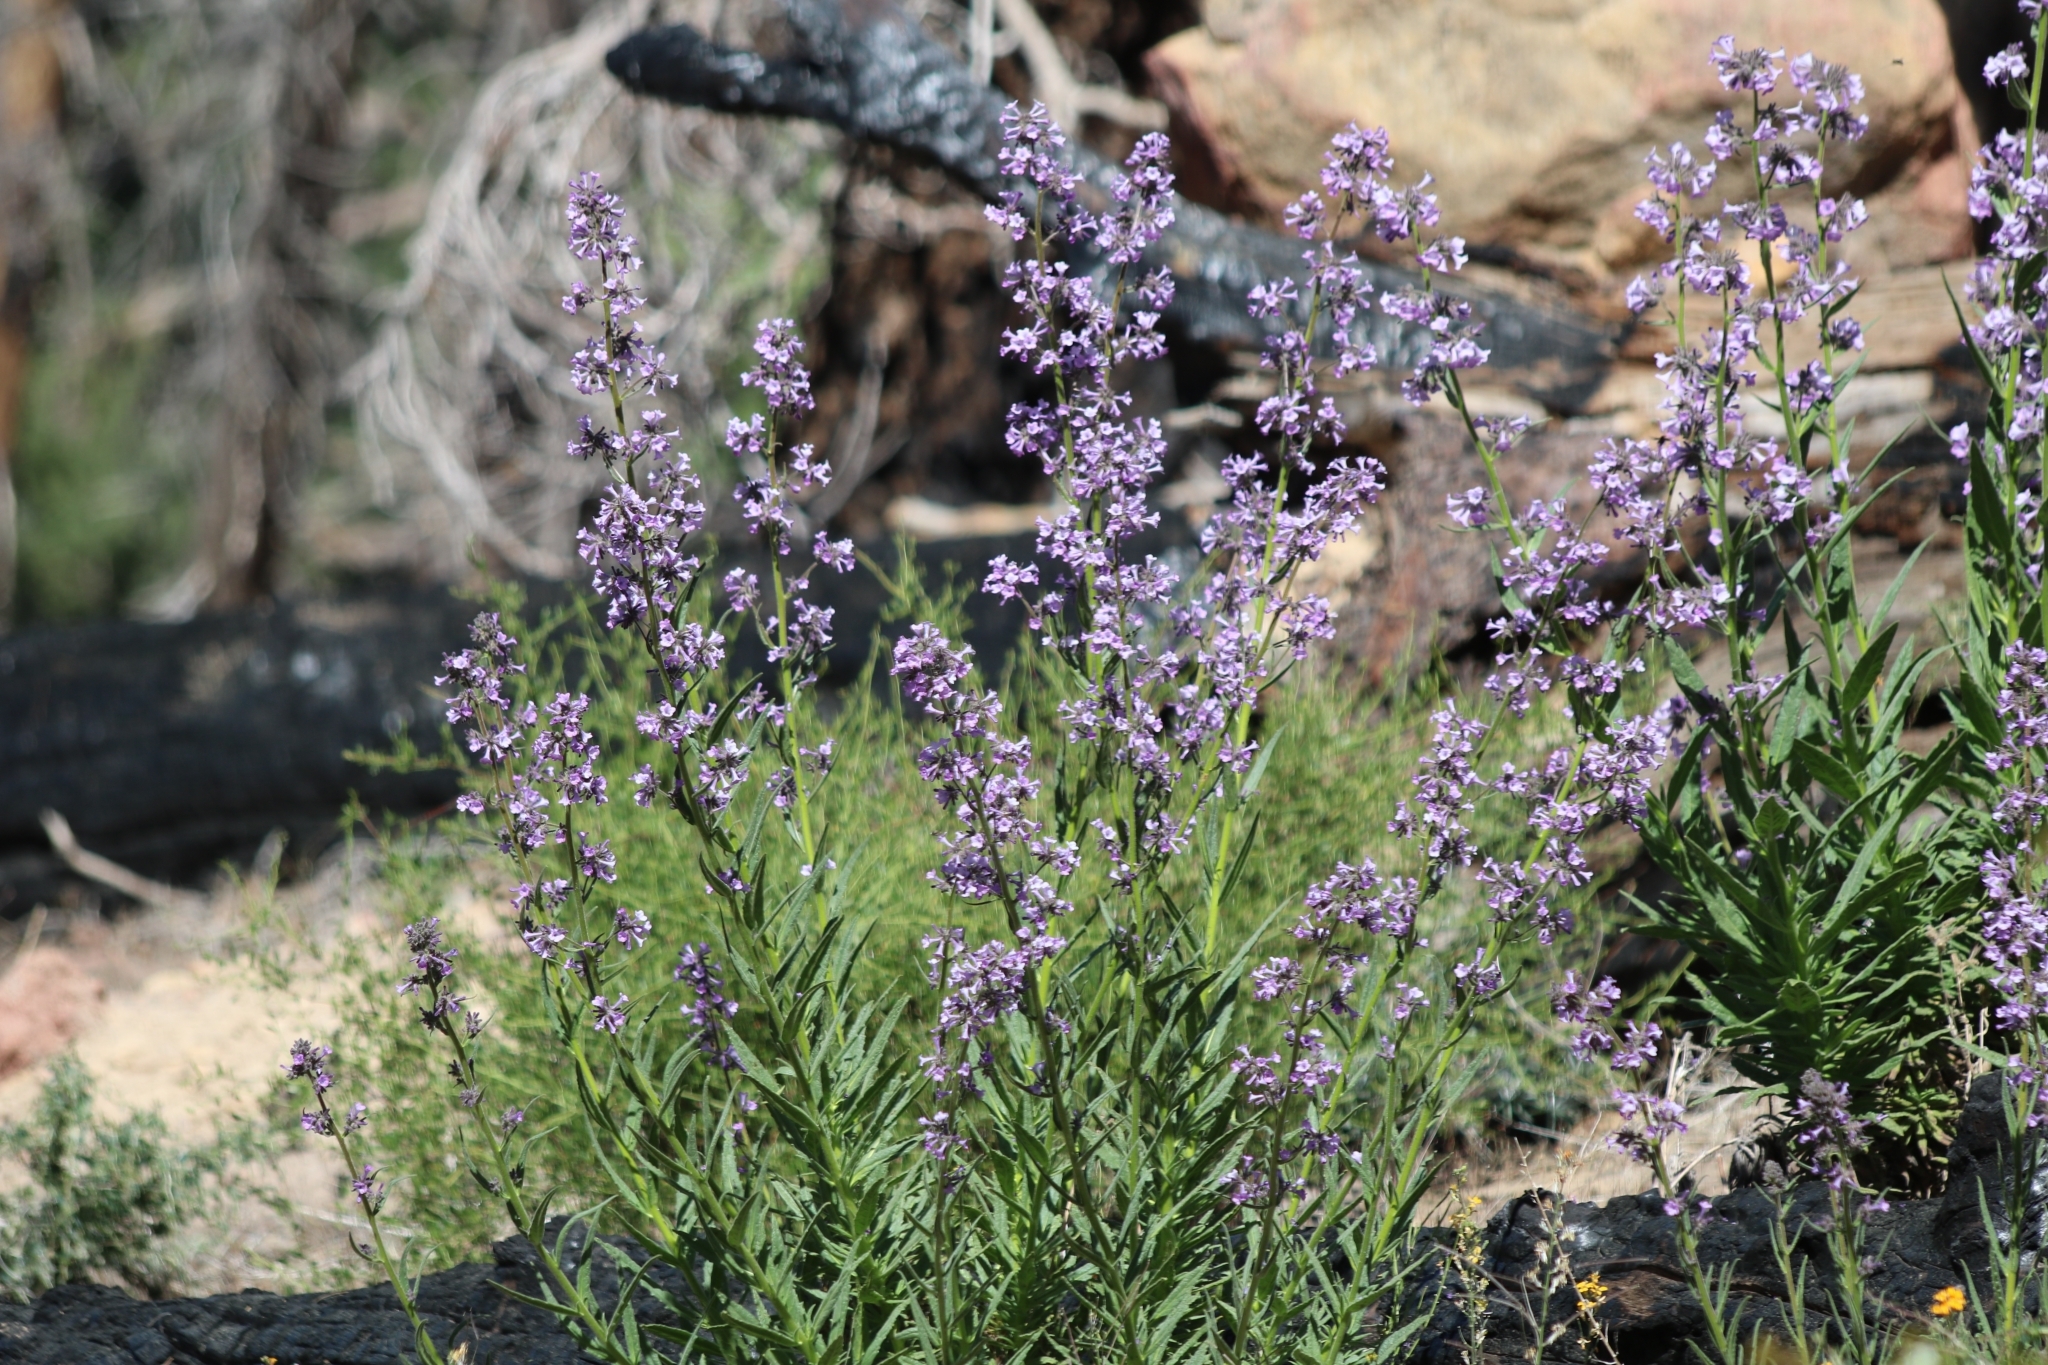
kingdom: Plantae
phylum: Tracheophyta
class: Magnoliopsida
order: Boraginales
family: Namaceae
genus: Turricula
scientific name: Turricula parryi
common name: Poodle-dog-bush
